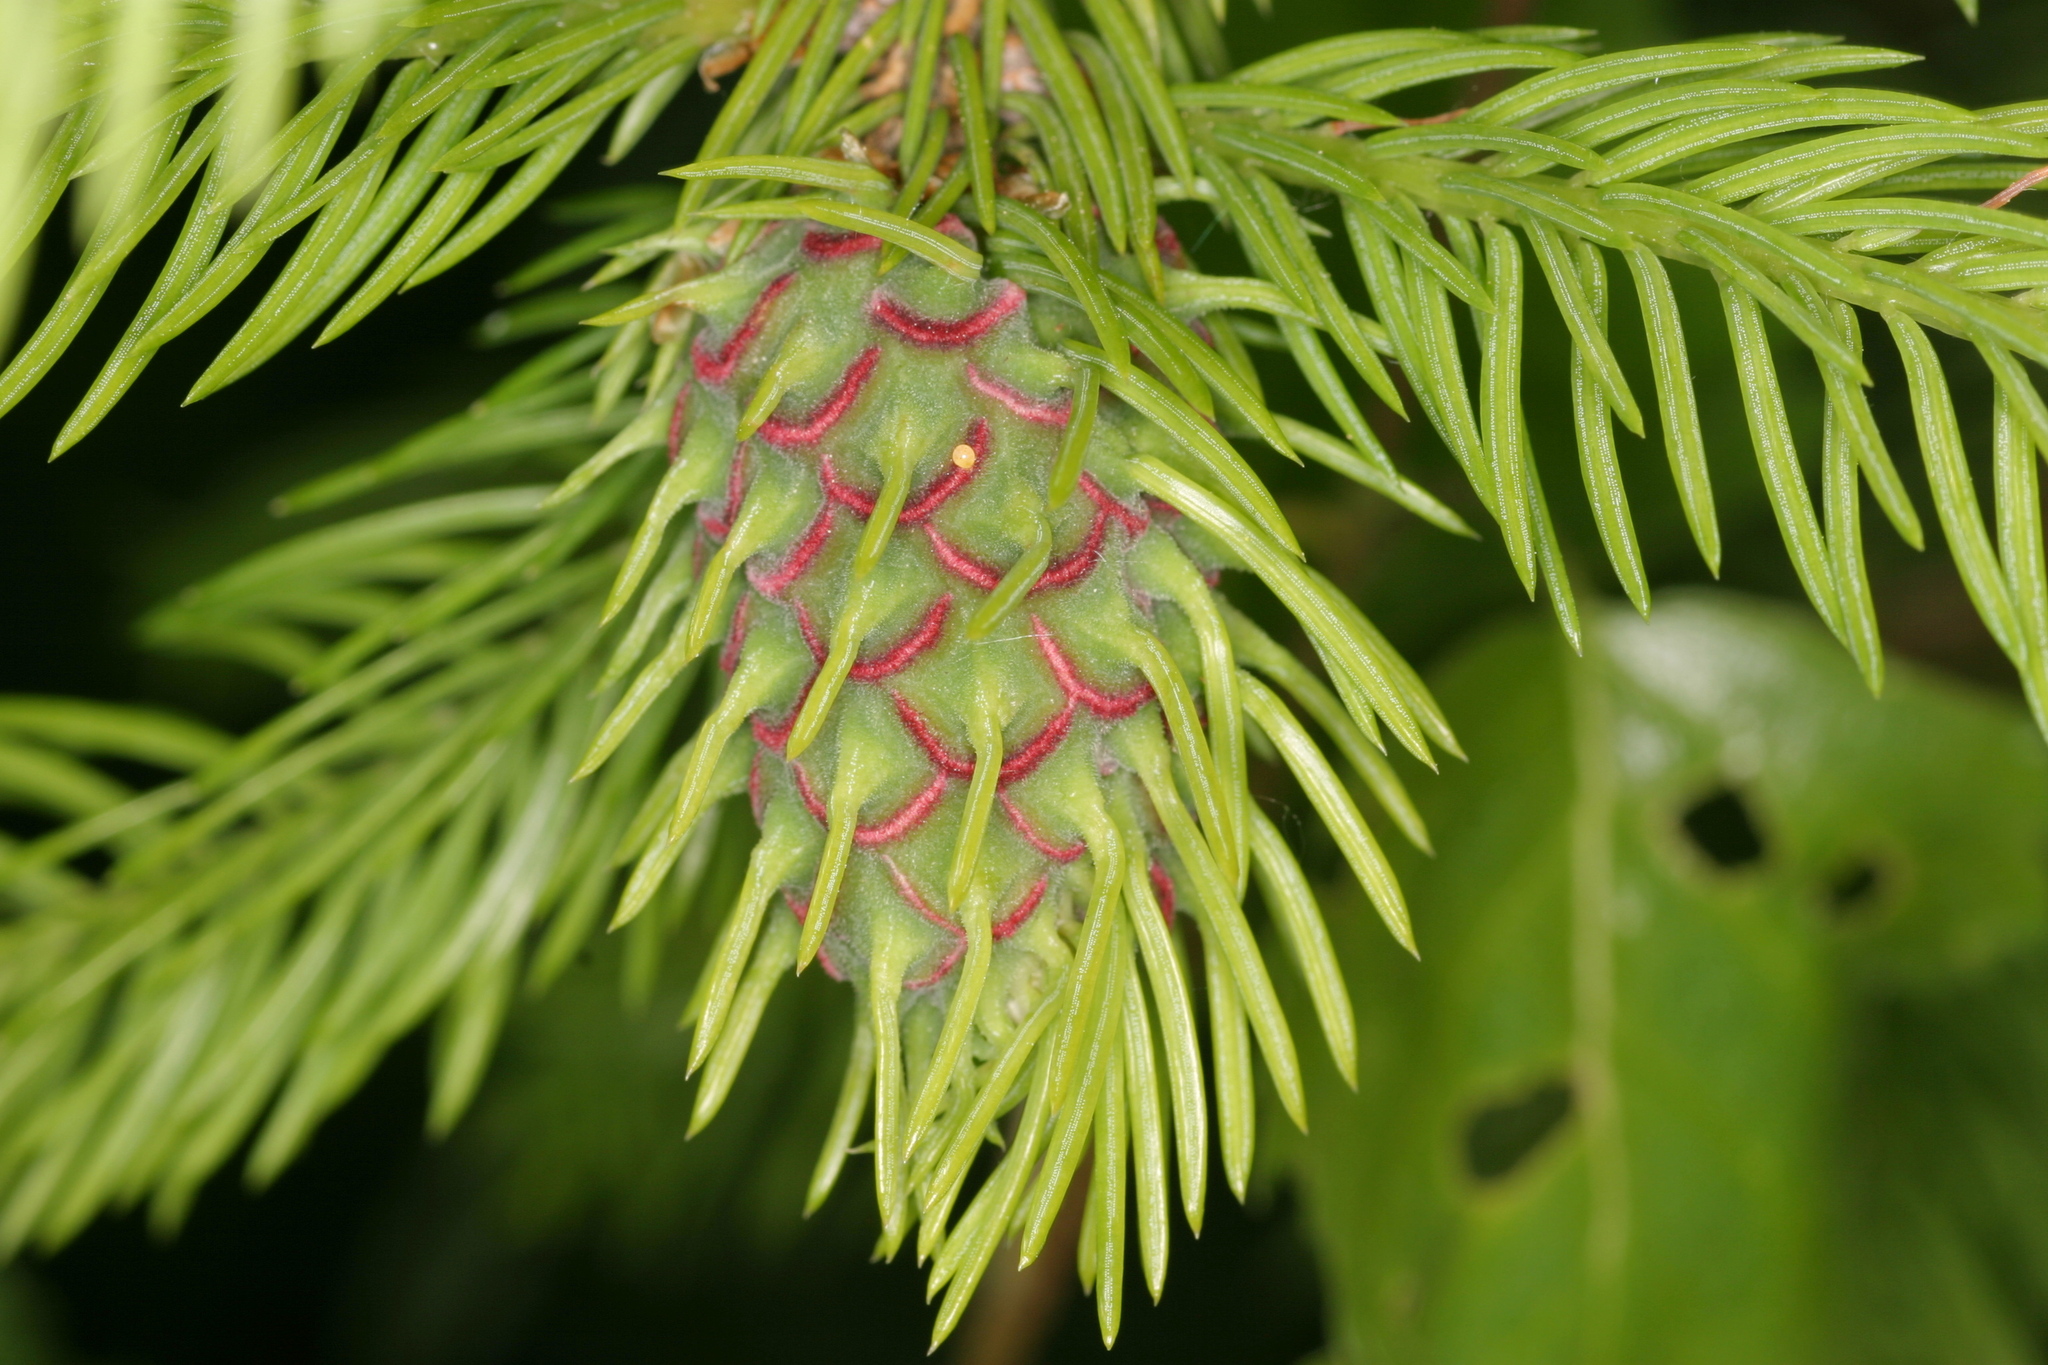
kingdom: Animalia
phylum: Arthropoda
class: Insecta
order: Hemiptera
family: Adelgidae
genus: Adelges
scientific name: Adelges abietis
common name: Eastern spruce gall adelgid
